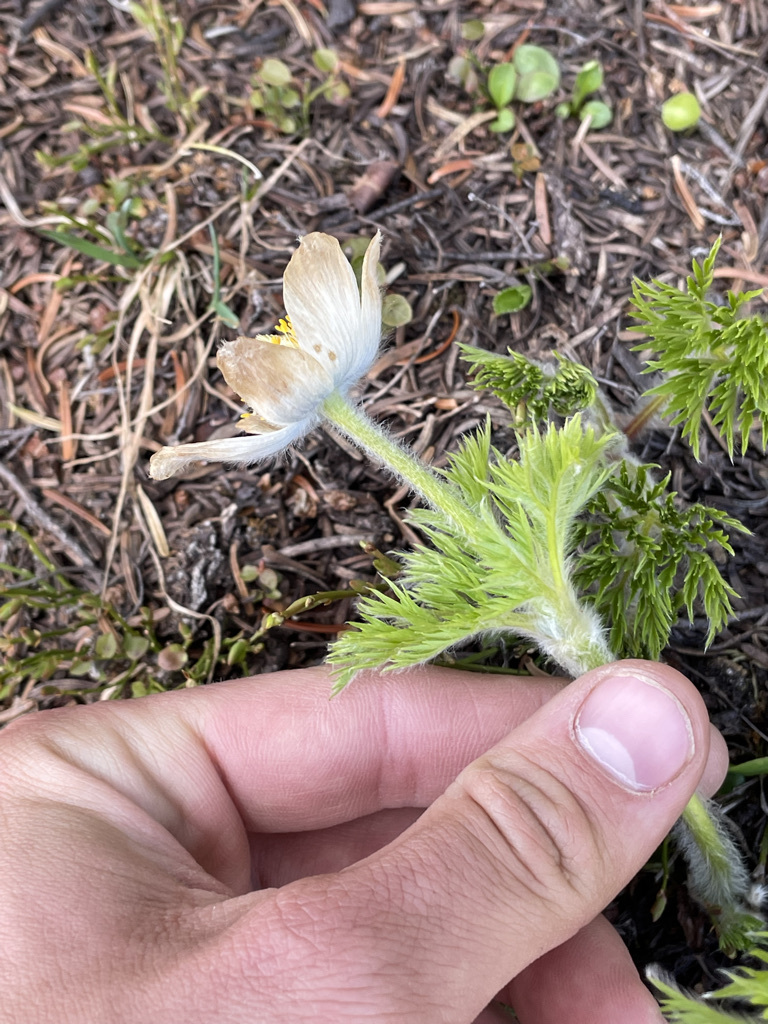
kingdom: Plantae
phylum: Tracheophyta
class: Magnoliopsida
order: Ranunculales
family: Ranunculaceae
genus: Pulsatilla
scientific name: Pulsatilla occidentalis
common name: Mountain pasqueflower
